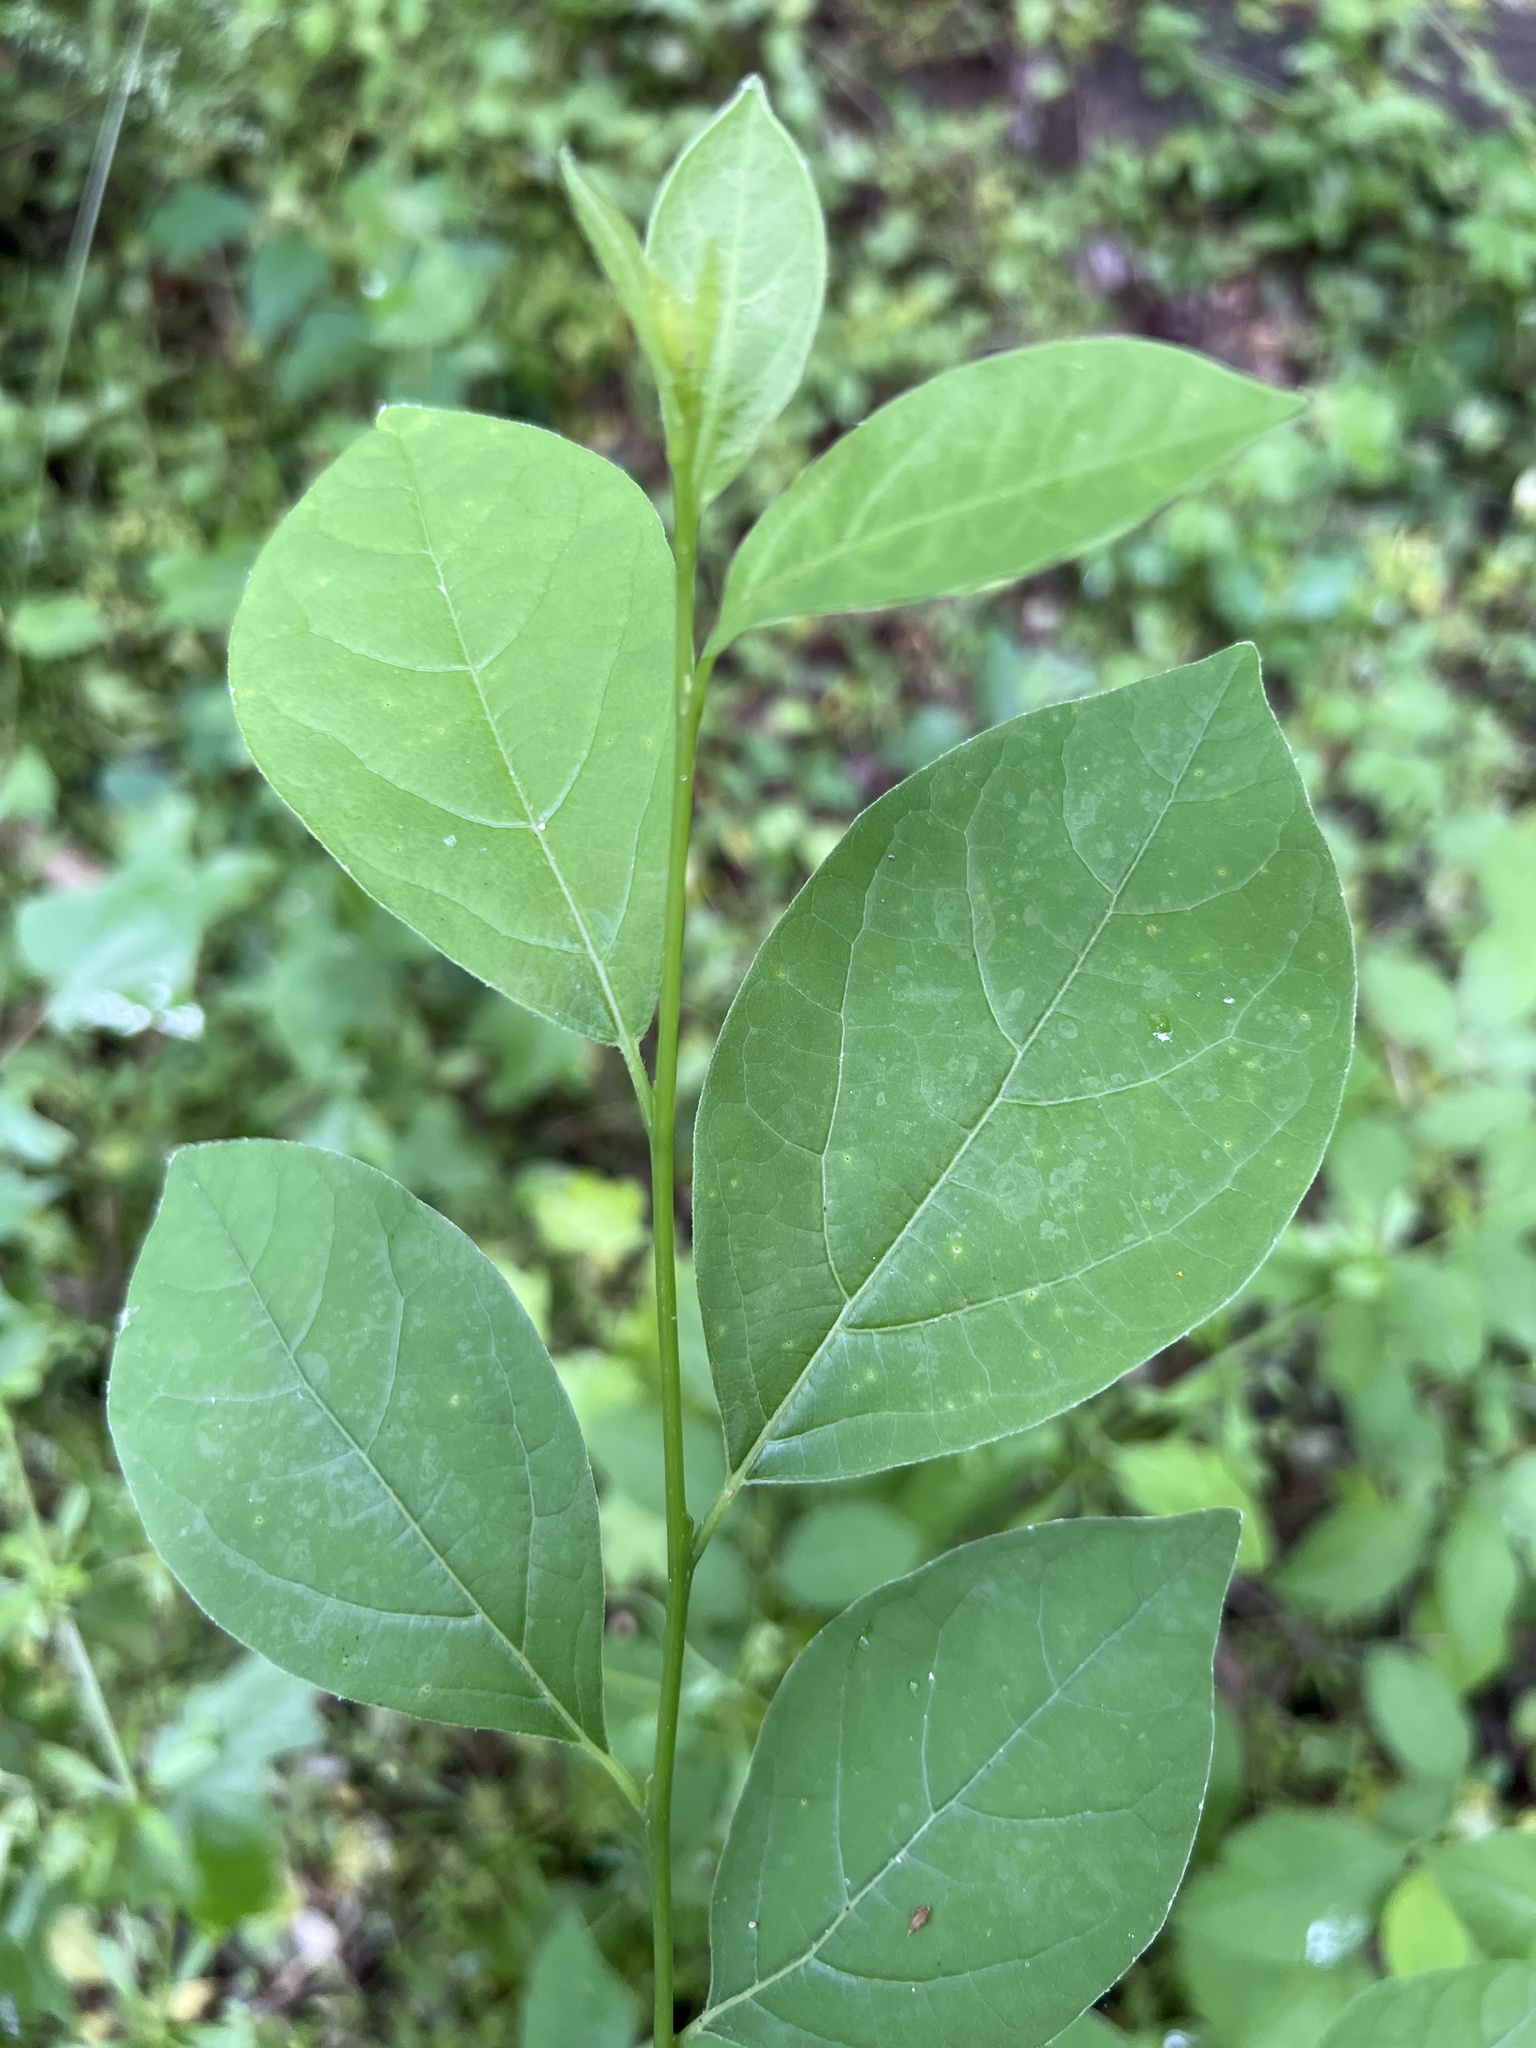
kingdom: Plantae
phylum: Tracheophyta
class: Magnoliopsida
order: Laurales
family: Lauraceae
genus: Lindera
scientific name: Lindera benzoin
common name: Spicebush
